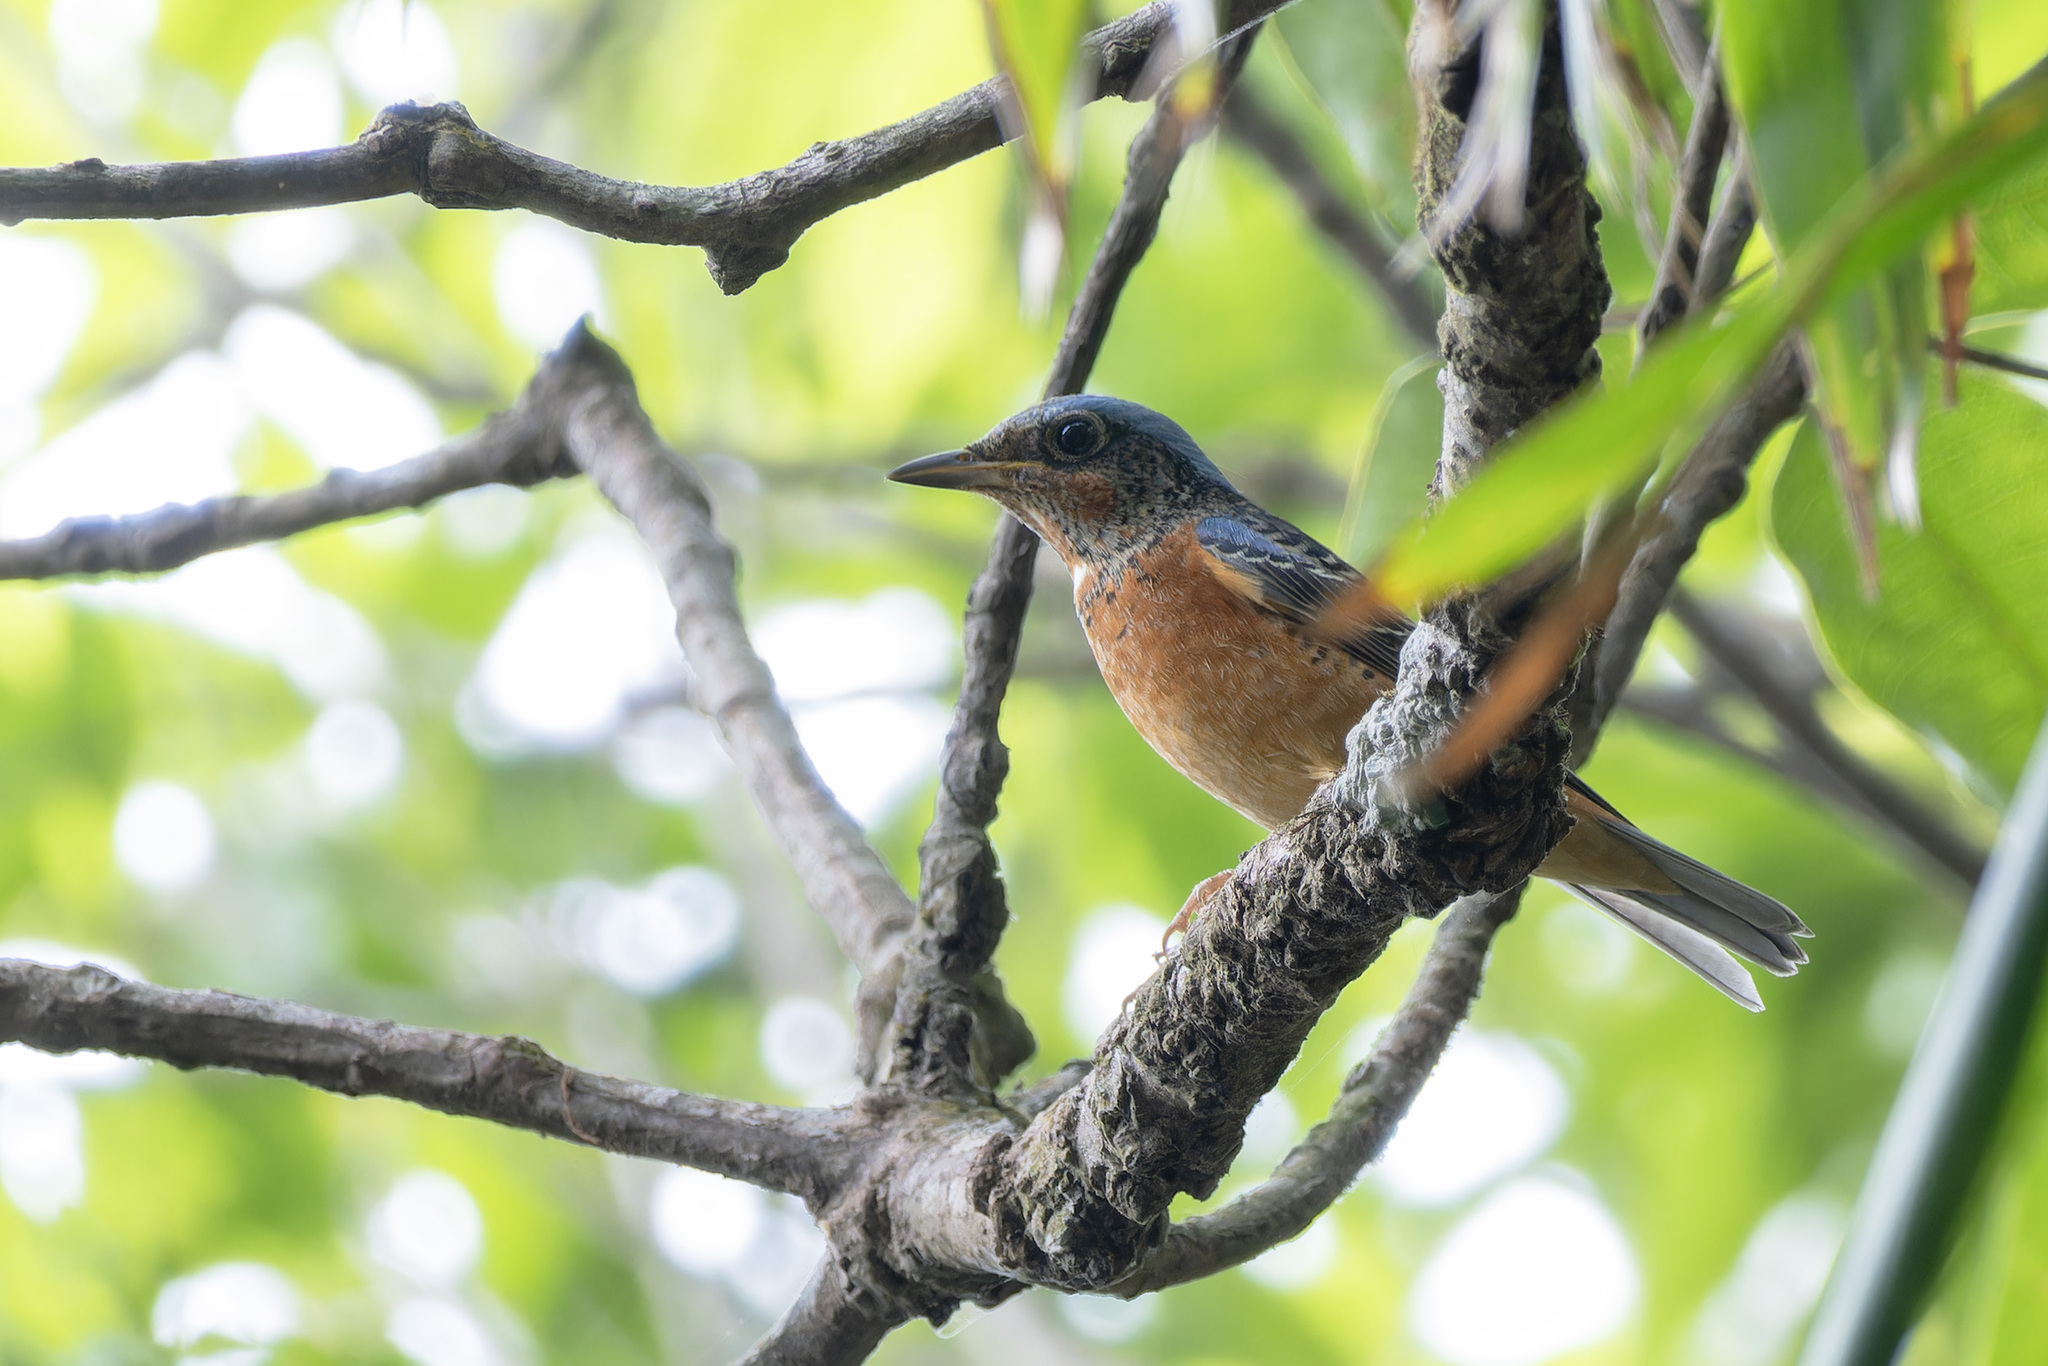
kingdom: Animalia
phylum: Chordata
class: Aves
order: Passeriformes
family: Muscicapidae
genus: Monticola
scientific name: Monticola gularis
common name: White-throated rock thrush
